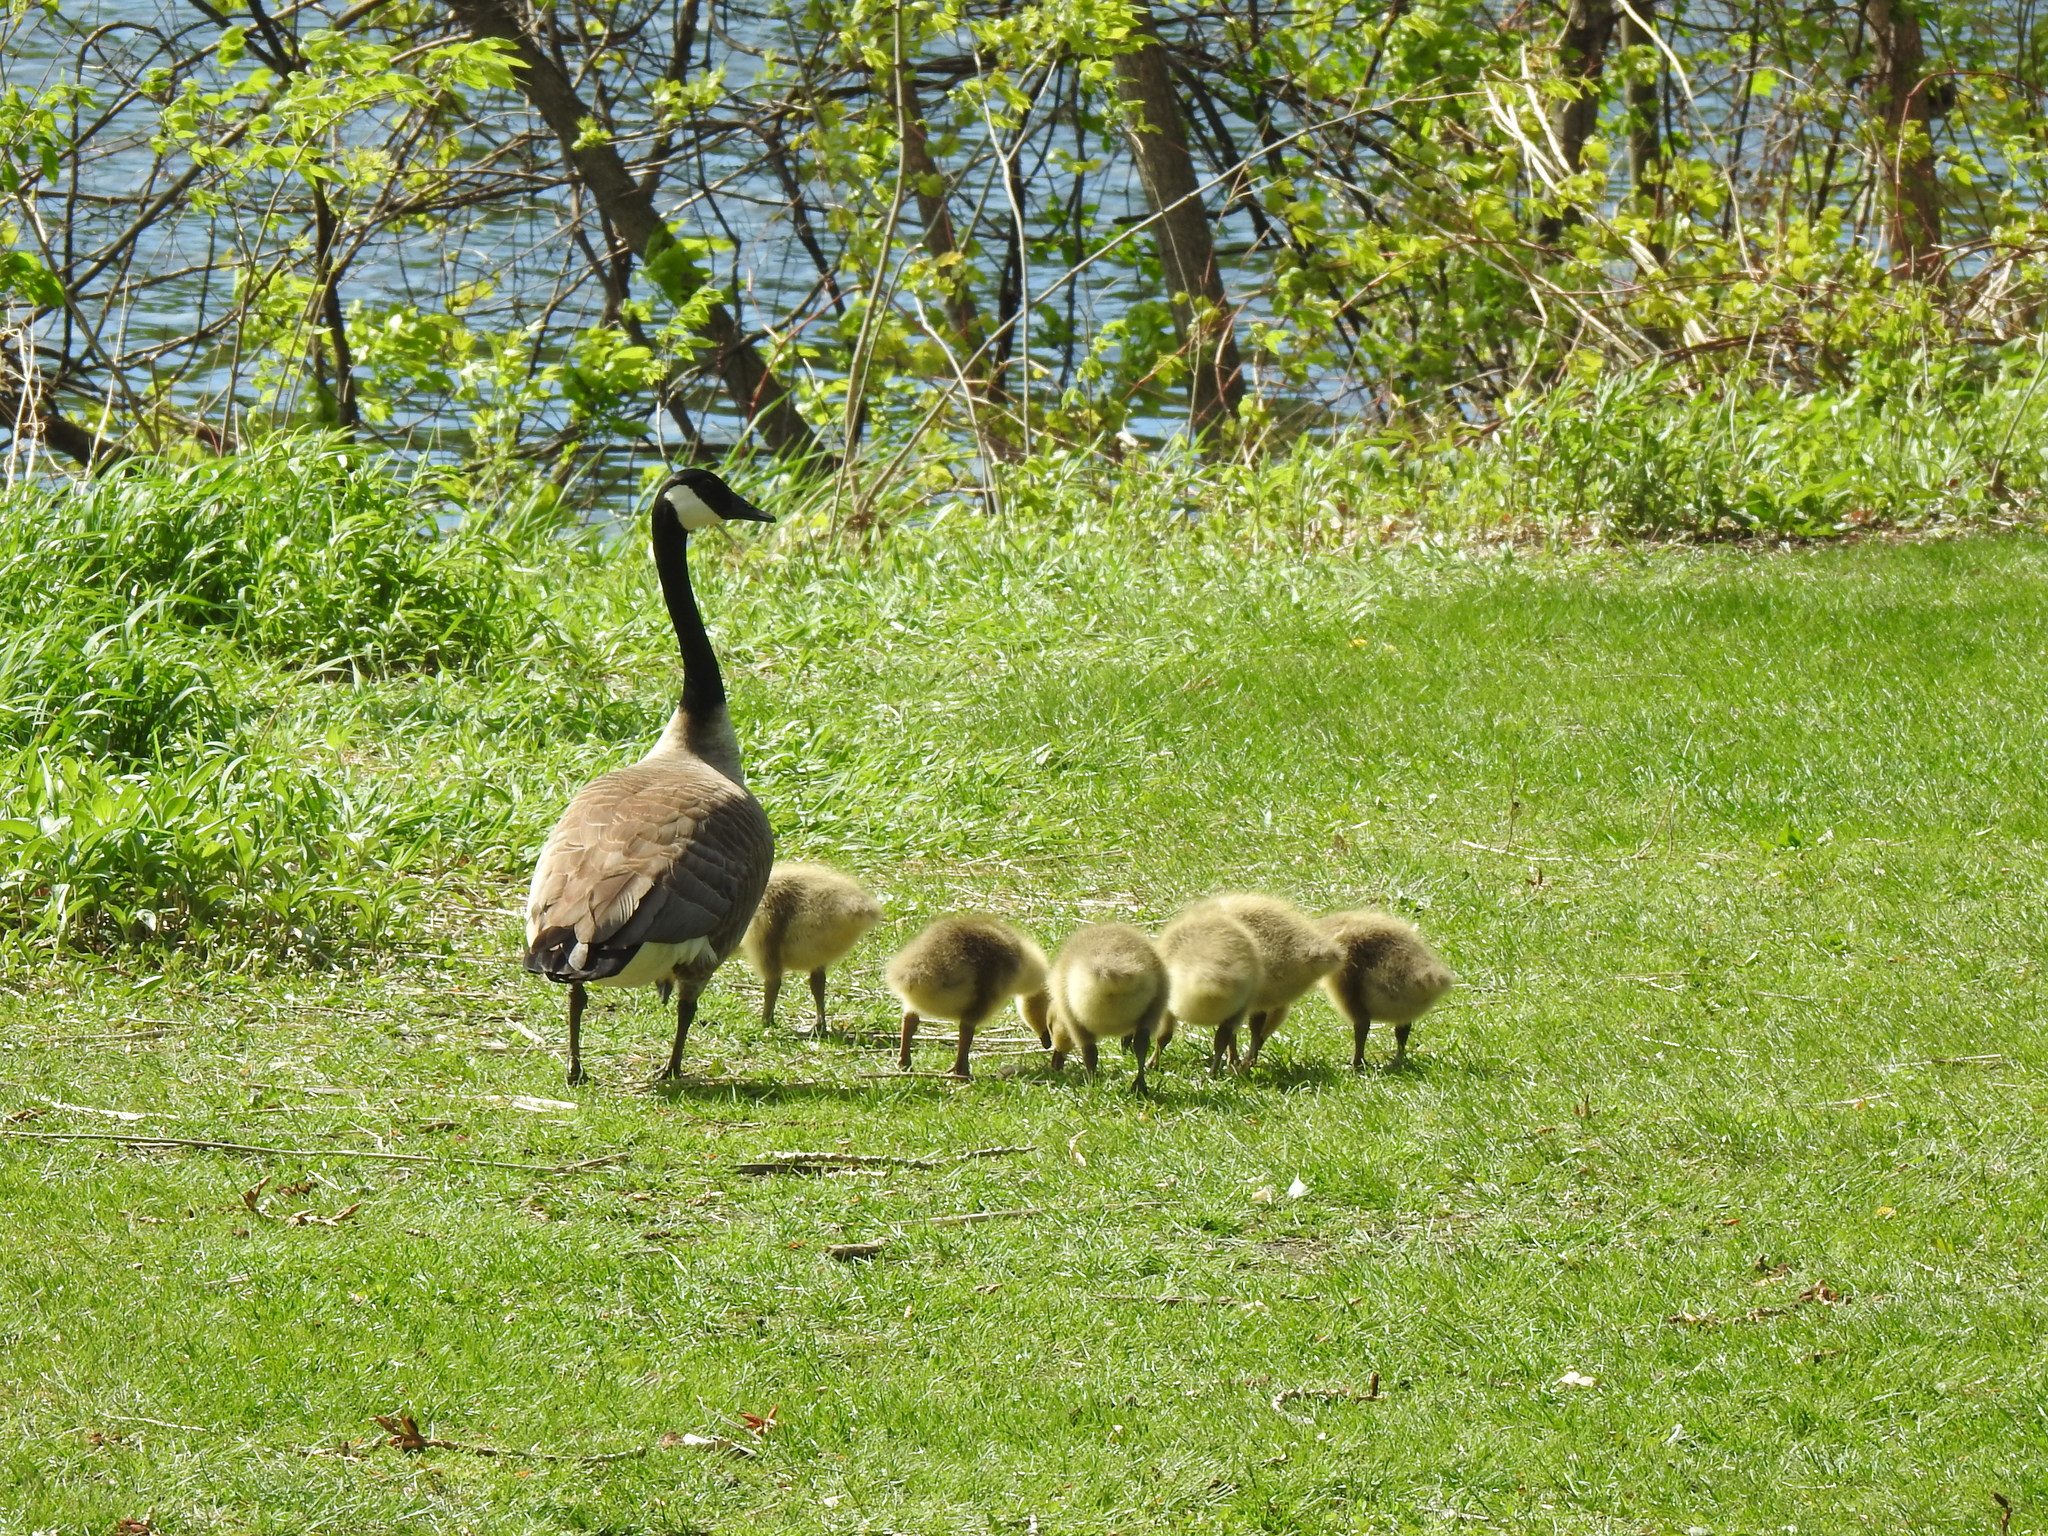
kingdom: Animalia
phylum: Chordata
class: Aves
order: Anseriformes
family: Anatidae
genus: Branta
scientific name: Branta canadensis
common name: Canada goose
